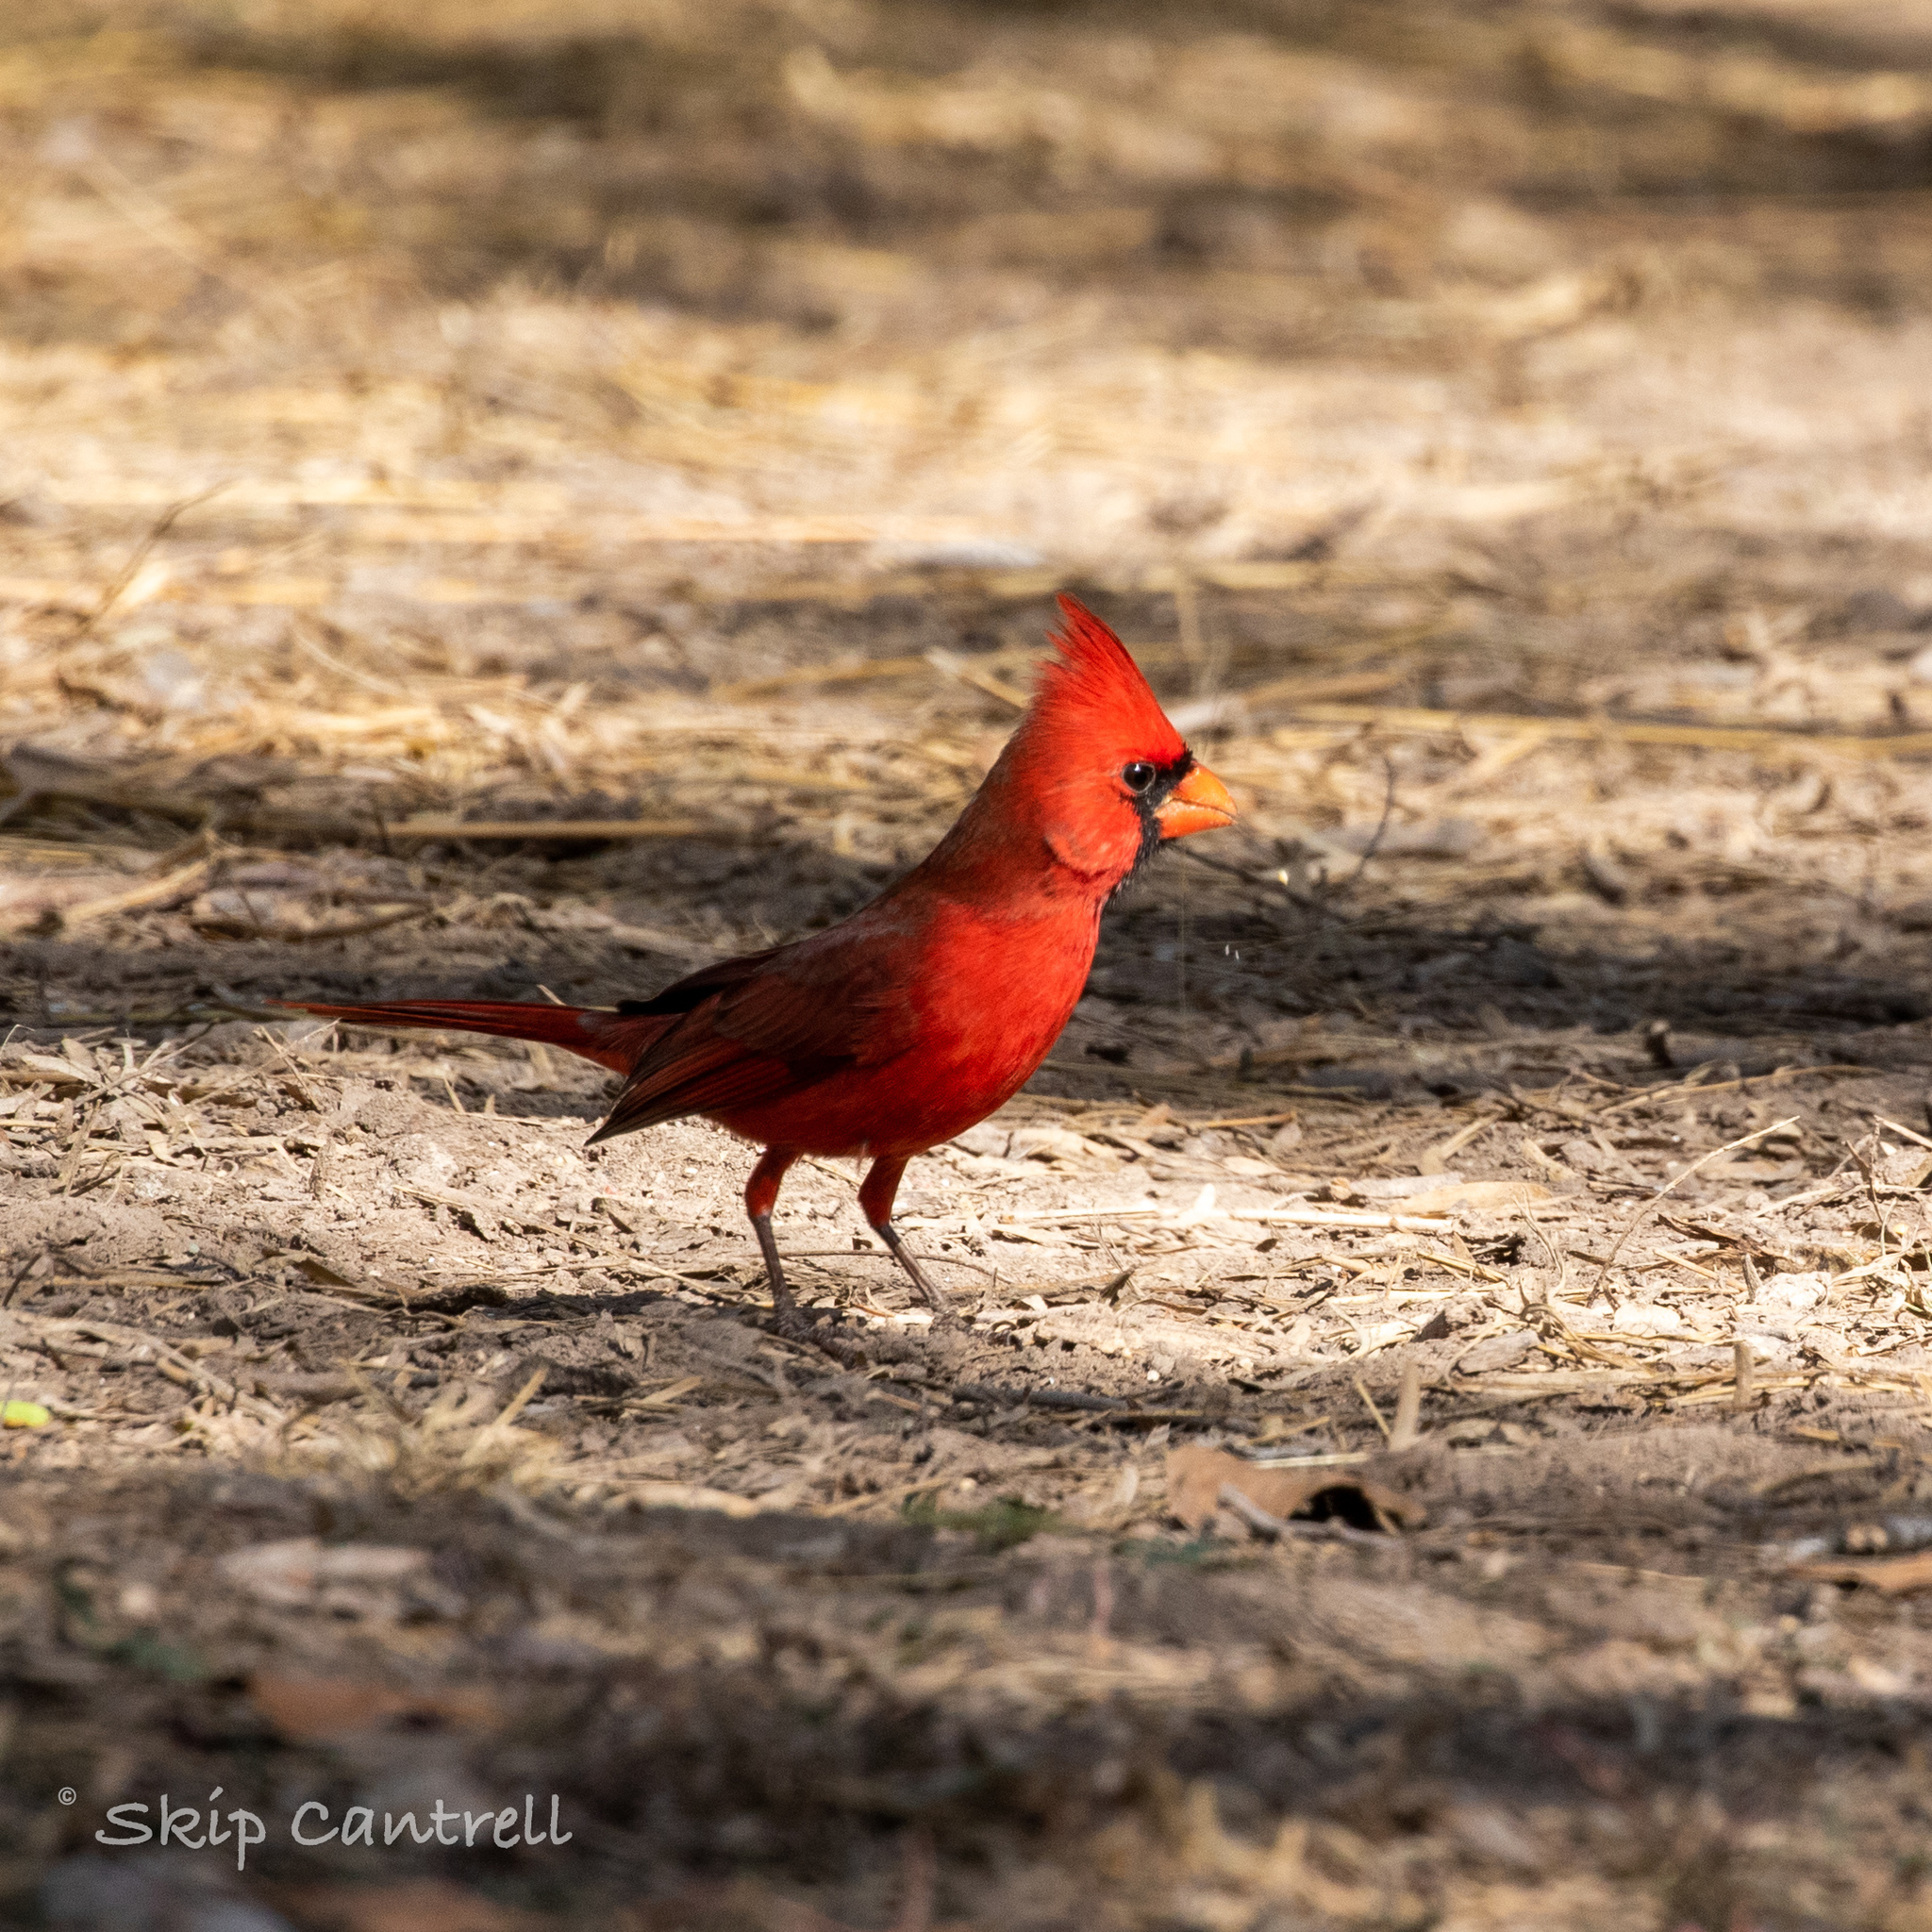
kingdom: Animalia
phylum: Chordata
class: Aves
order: Passeriformes
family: Cardinalidae
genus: Cardinalis
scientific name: Cardinalis cardinalis
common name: Northern cardinal
